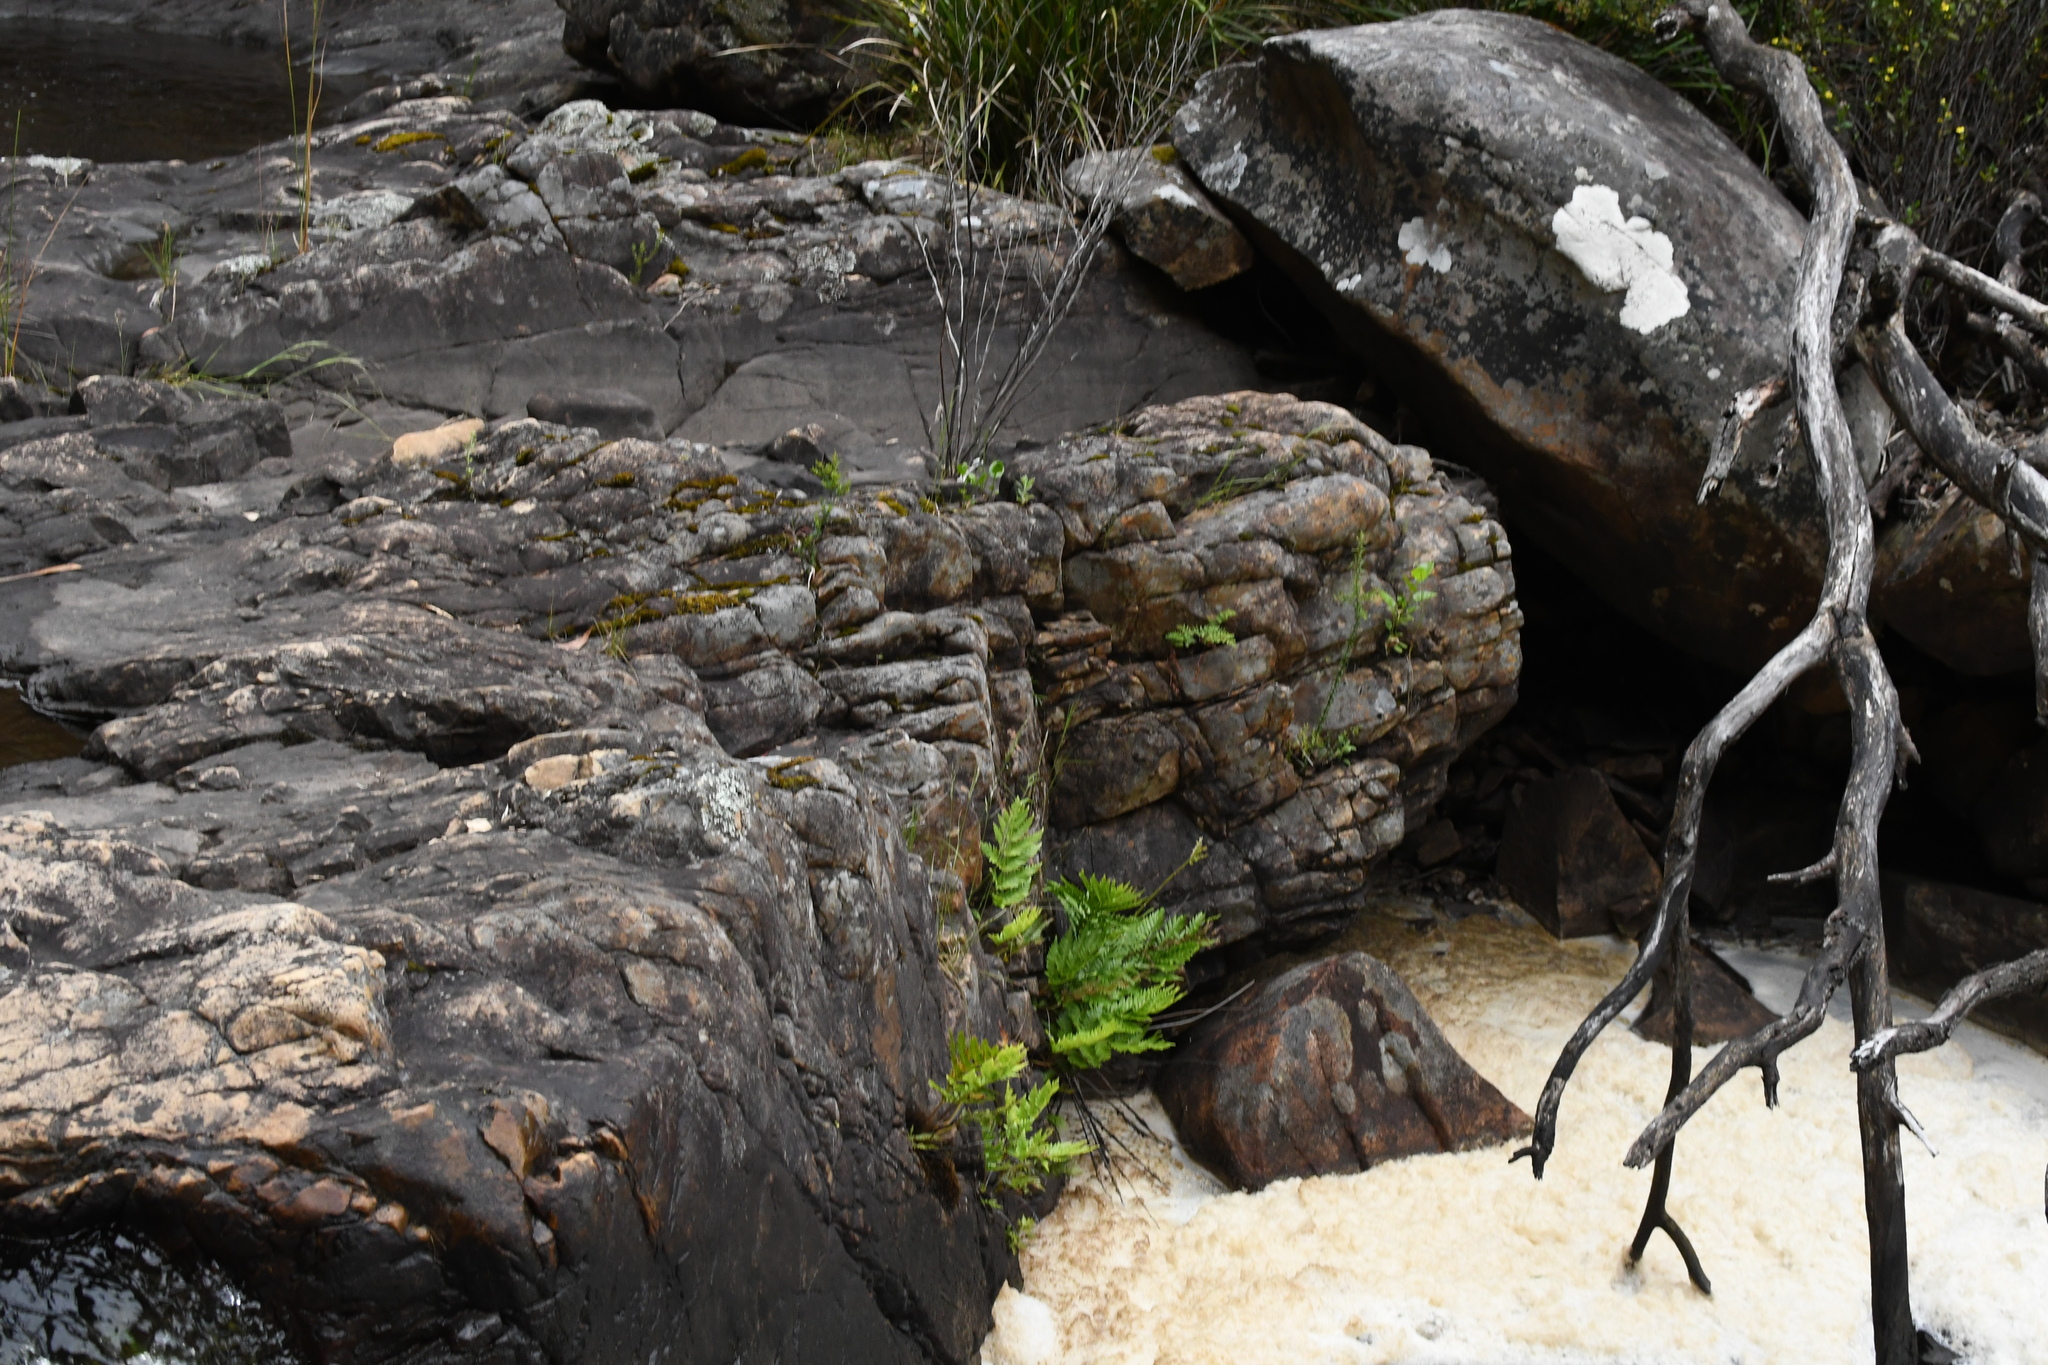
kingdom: Plantae
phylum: Tracheophyta
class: Polypodiopsida
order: Osmundales
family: Osmundaceae
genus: Todea
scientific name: Todea barbara
